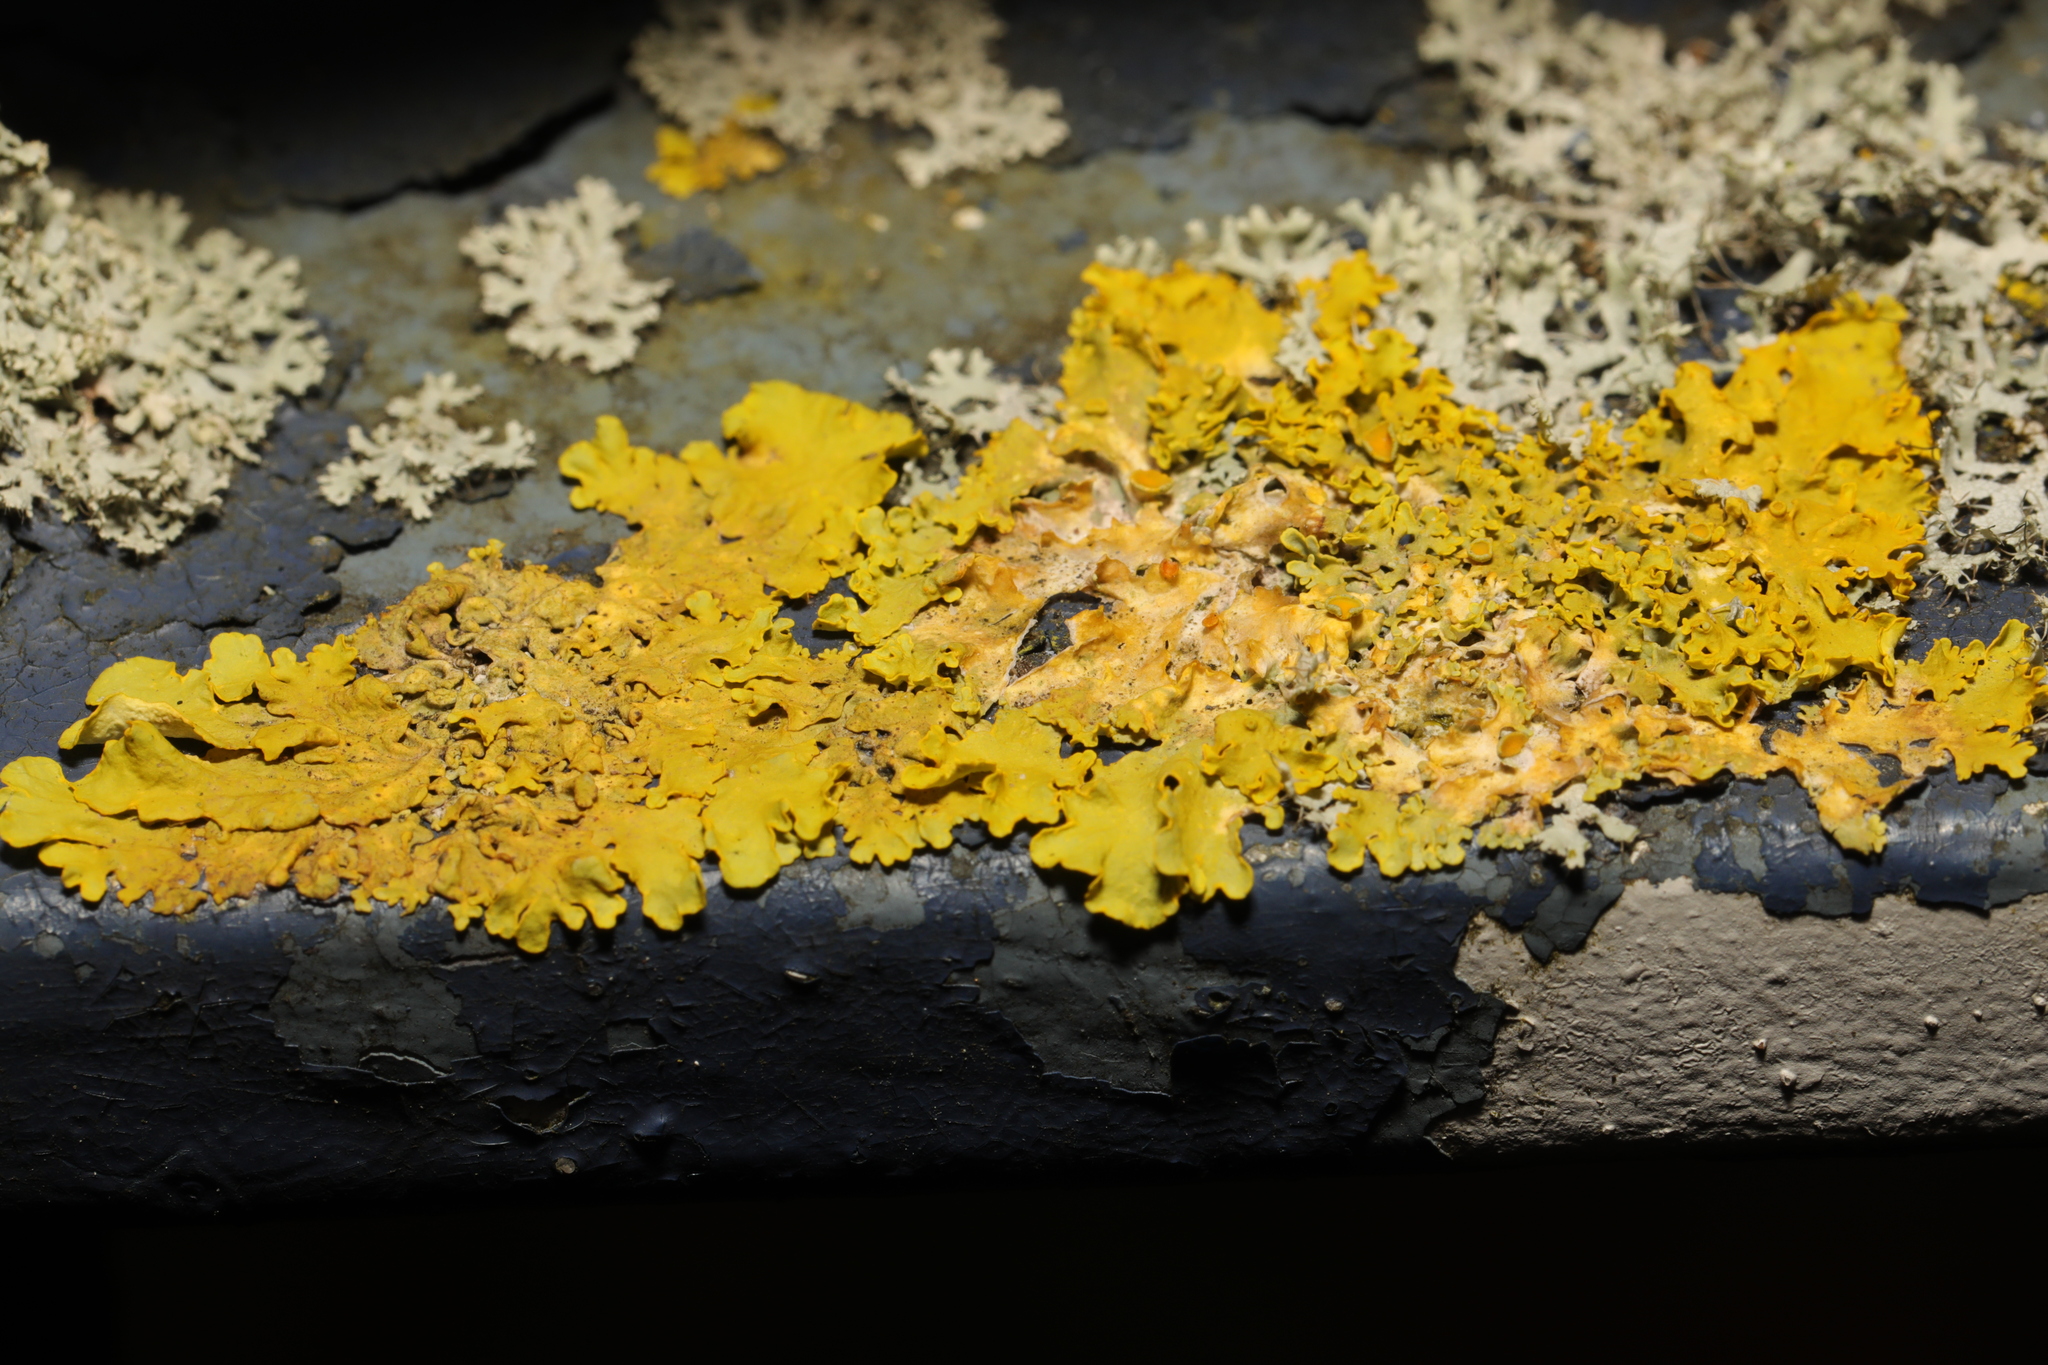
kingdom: Fungi
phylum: Ascomycota
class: Lecanoromycetes
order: Teloschistales
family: Teloschistaceae
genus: Xanthoria
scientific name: Xanthoria parietina
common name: Common orange lichen
